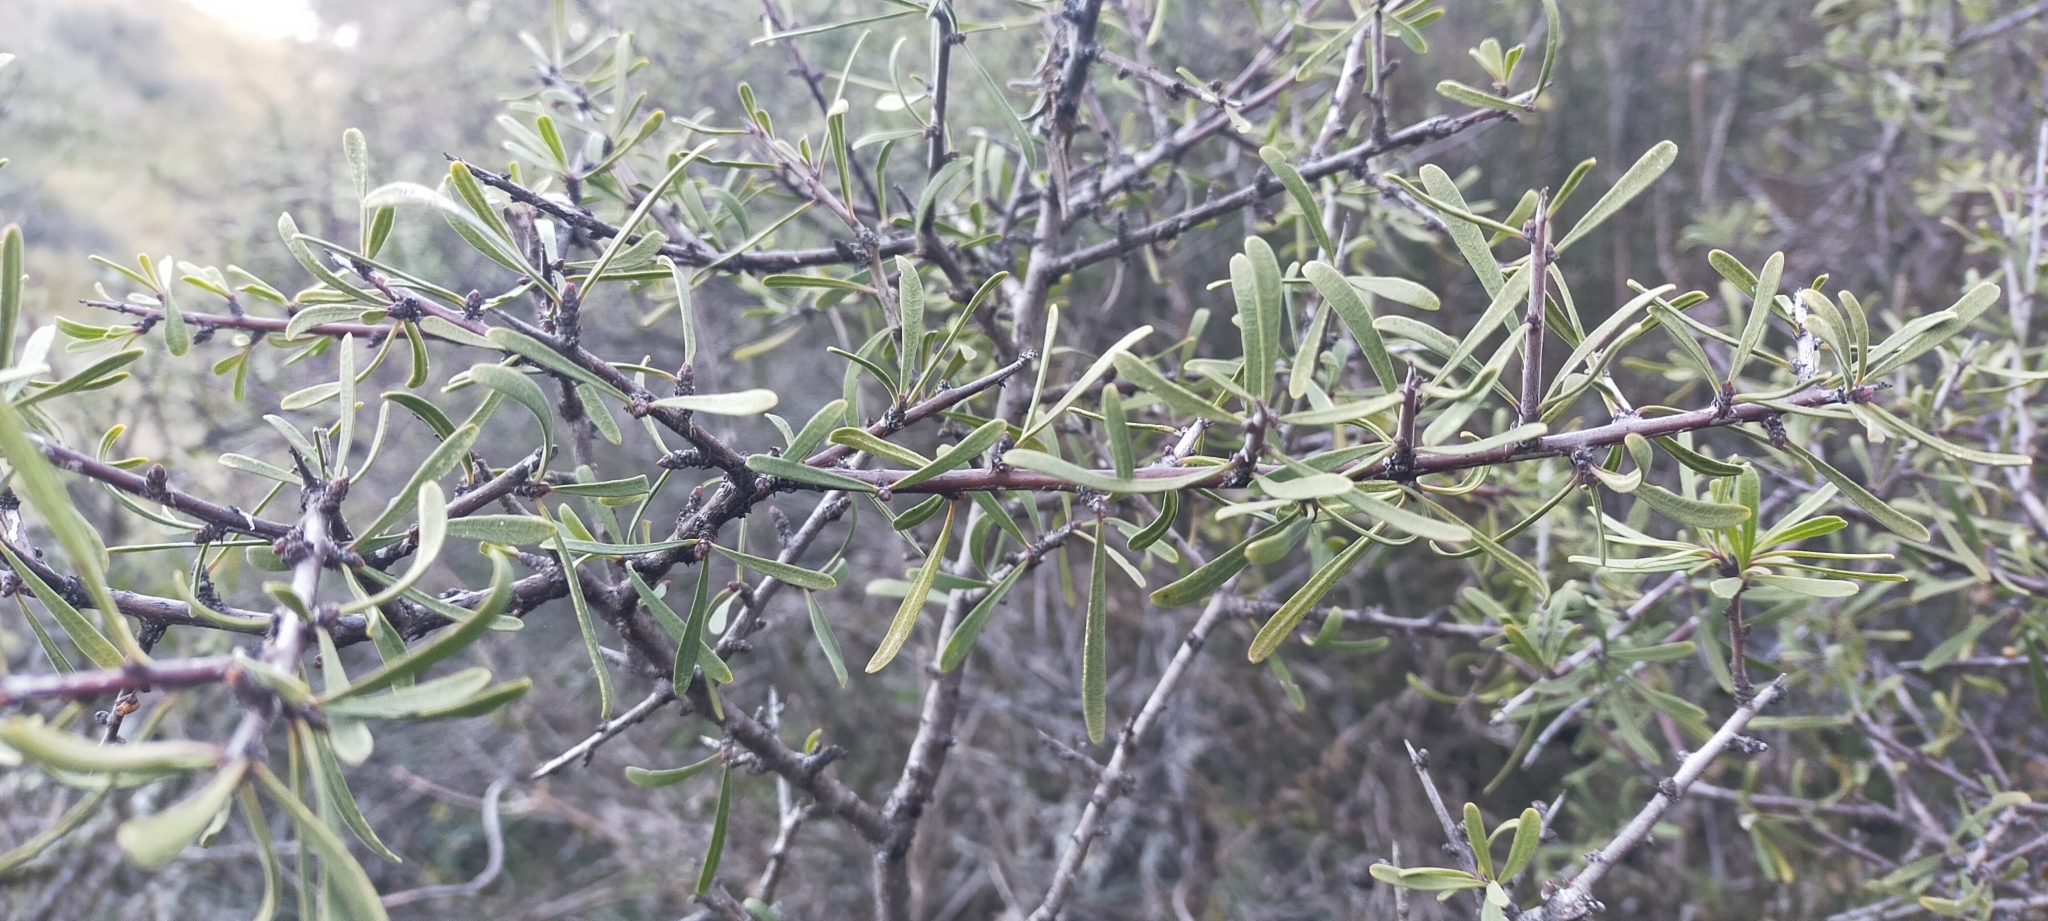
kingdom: Plantae
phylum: Tracheophyta
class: Magnoliopsida
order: Rosales
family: Rhamnaceae
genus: Rhamnus
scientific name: Rhamnus lycioides
